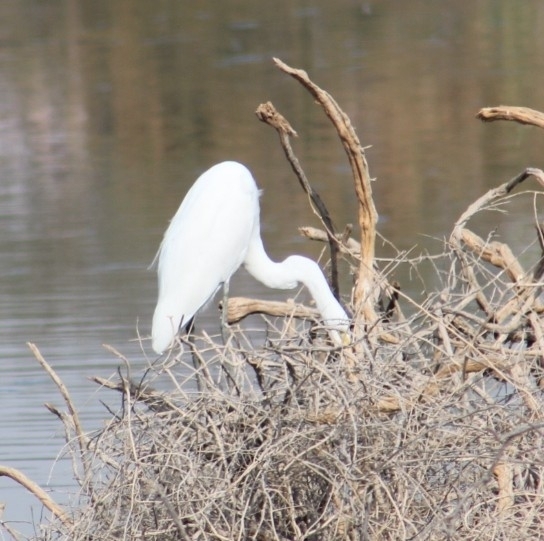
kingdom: Animalia
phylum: Chordata
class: Aves
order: Pelecaniformes
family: Ardeidae
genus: Ardea
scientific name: Ardea alba
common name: Great egret
